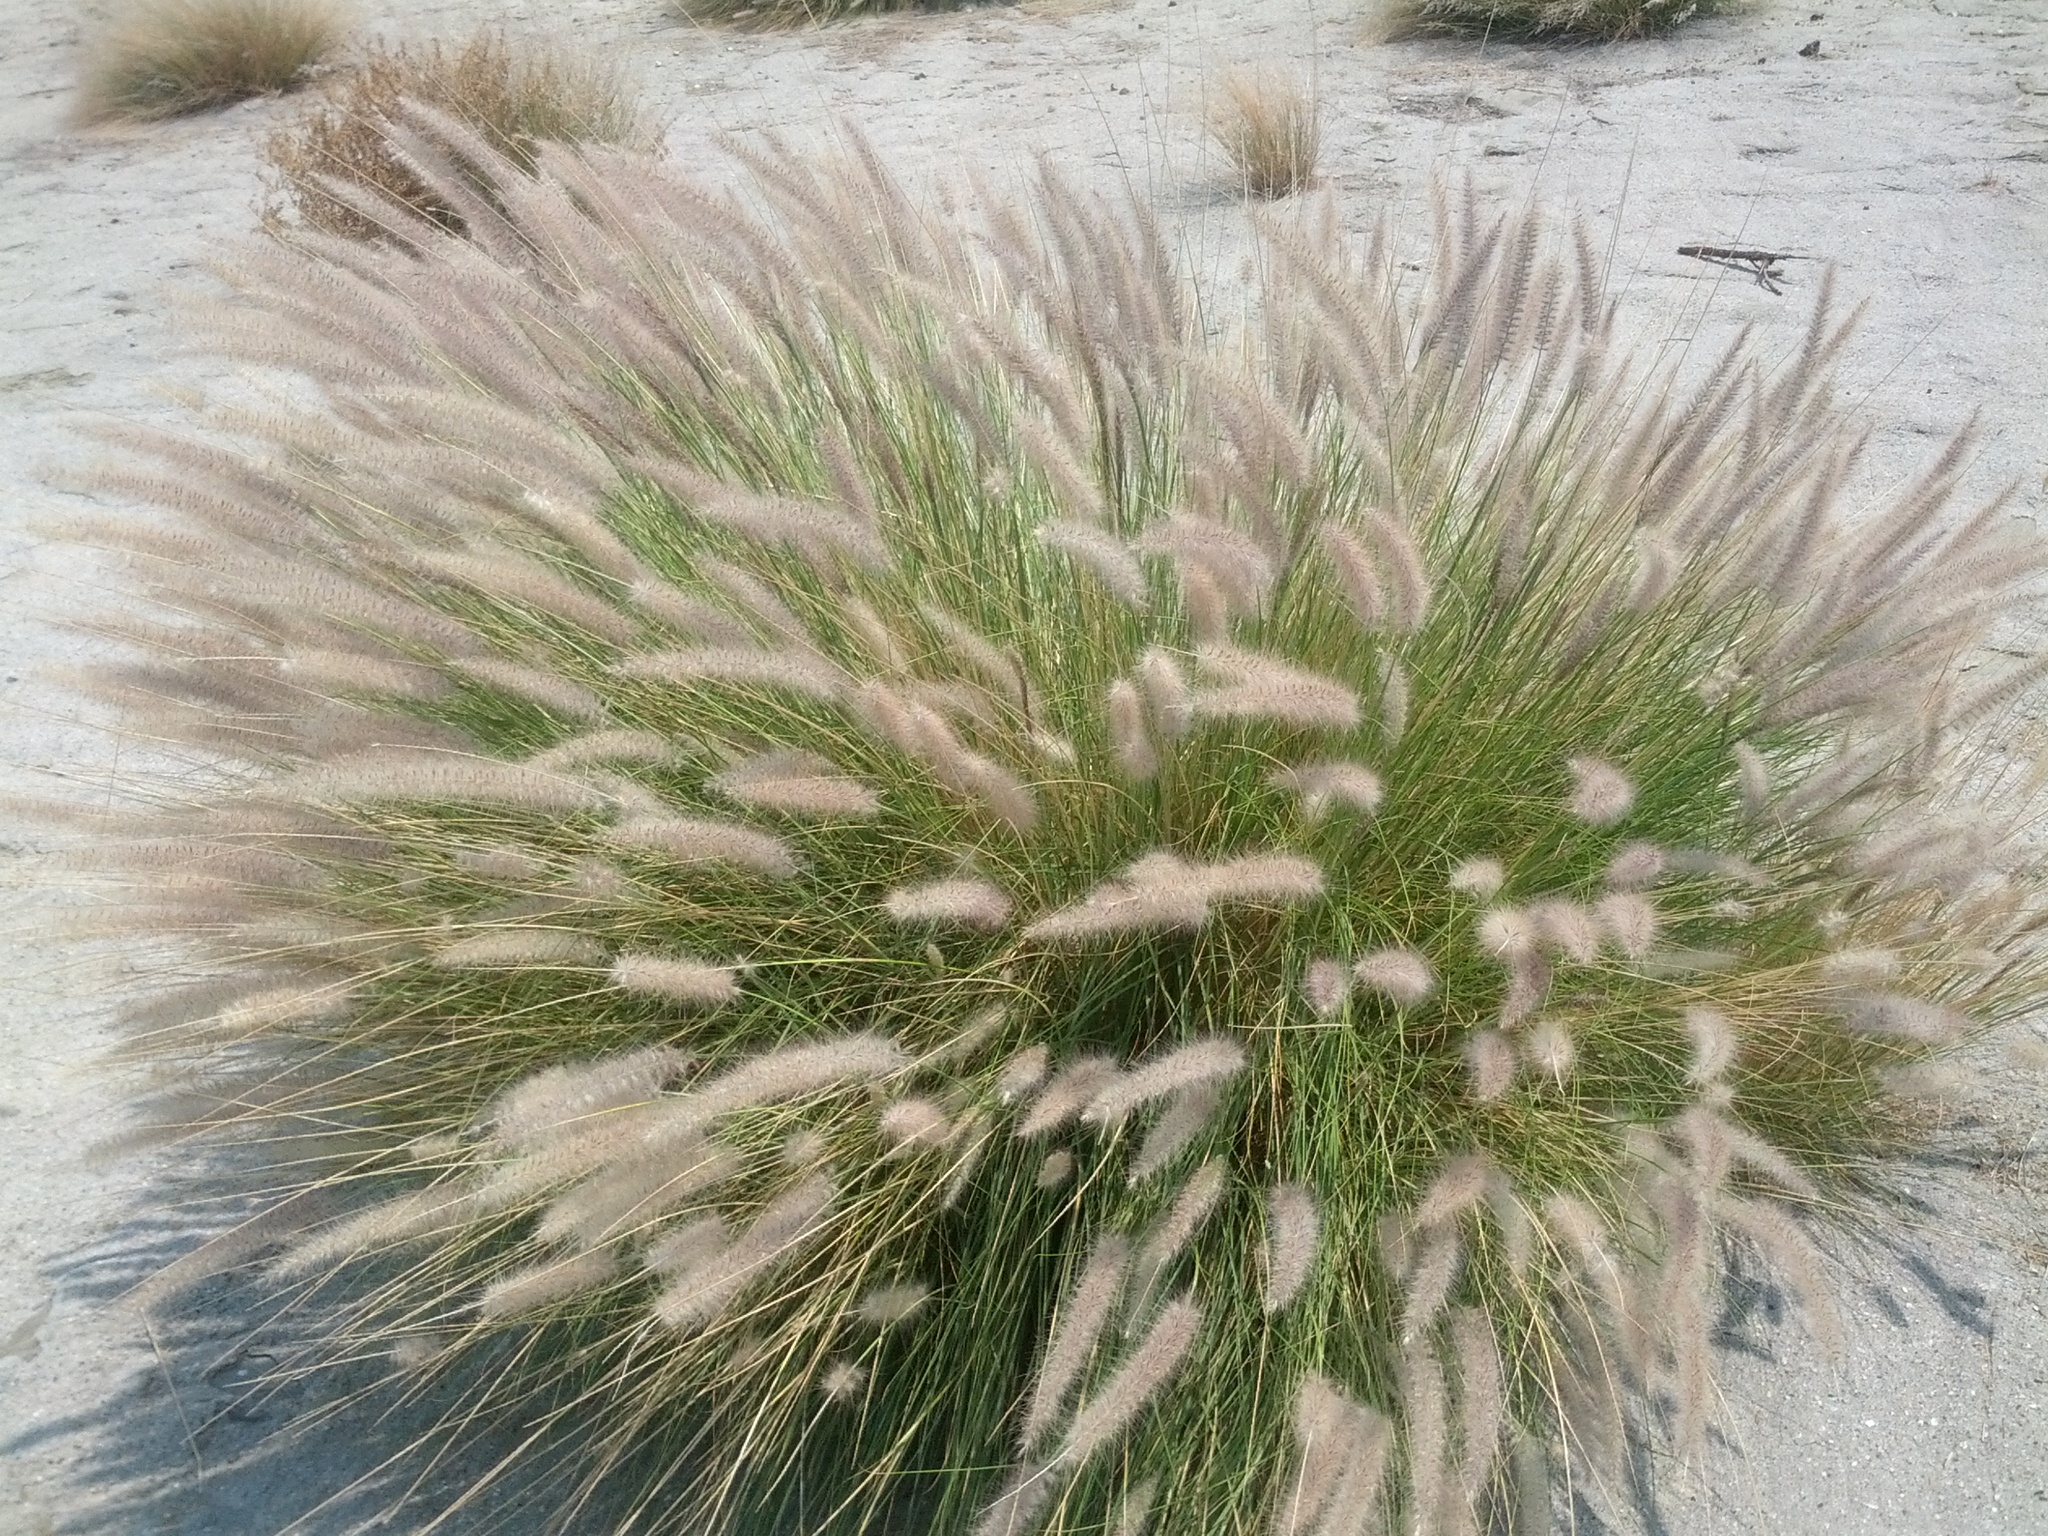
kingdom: Plantae
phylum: Tracheophyta
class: Liliopsida
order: Poales
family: Poaceae
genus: Cenchrus
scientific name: Cenchrus setaceus
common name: Crimson fountaingrass
